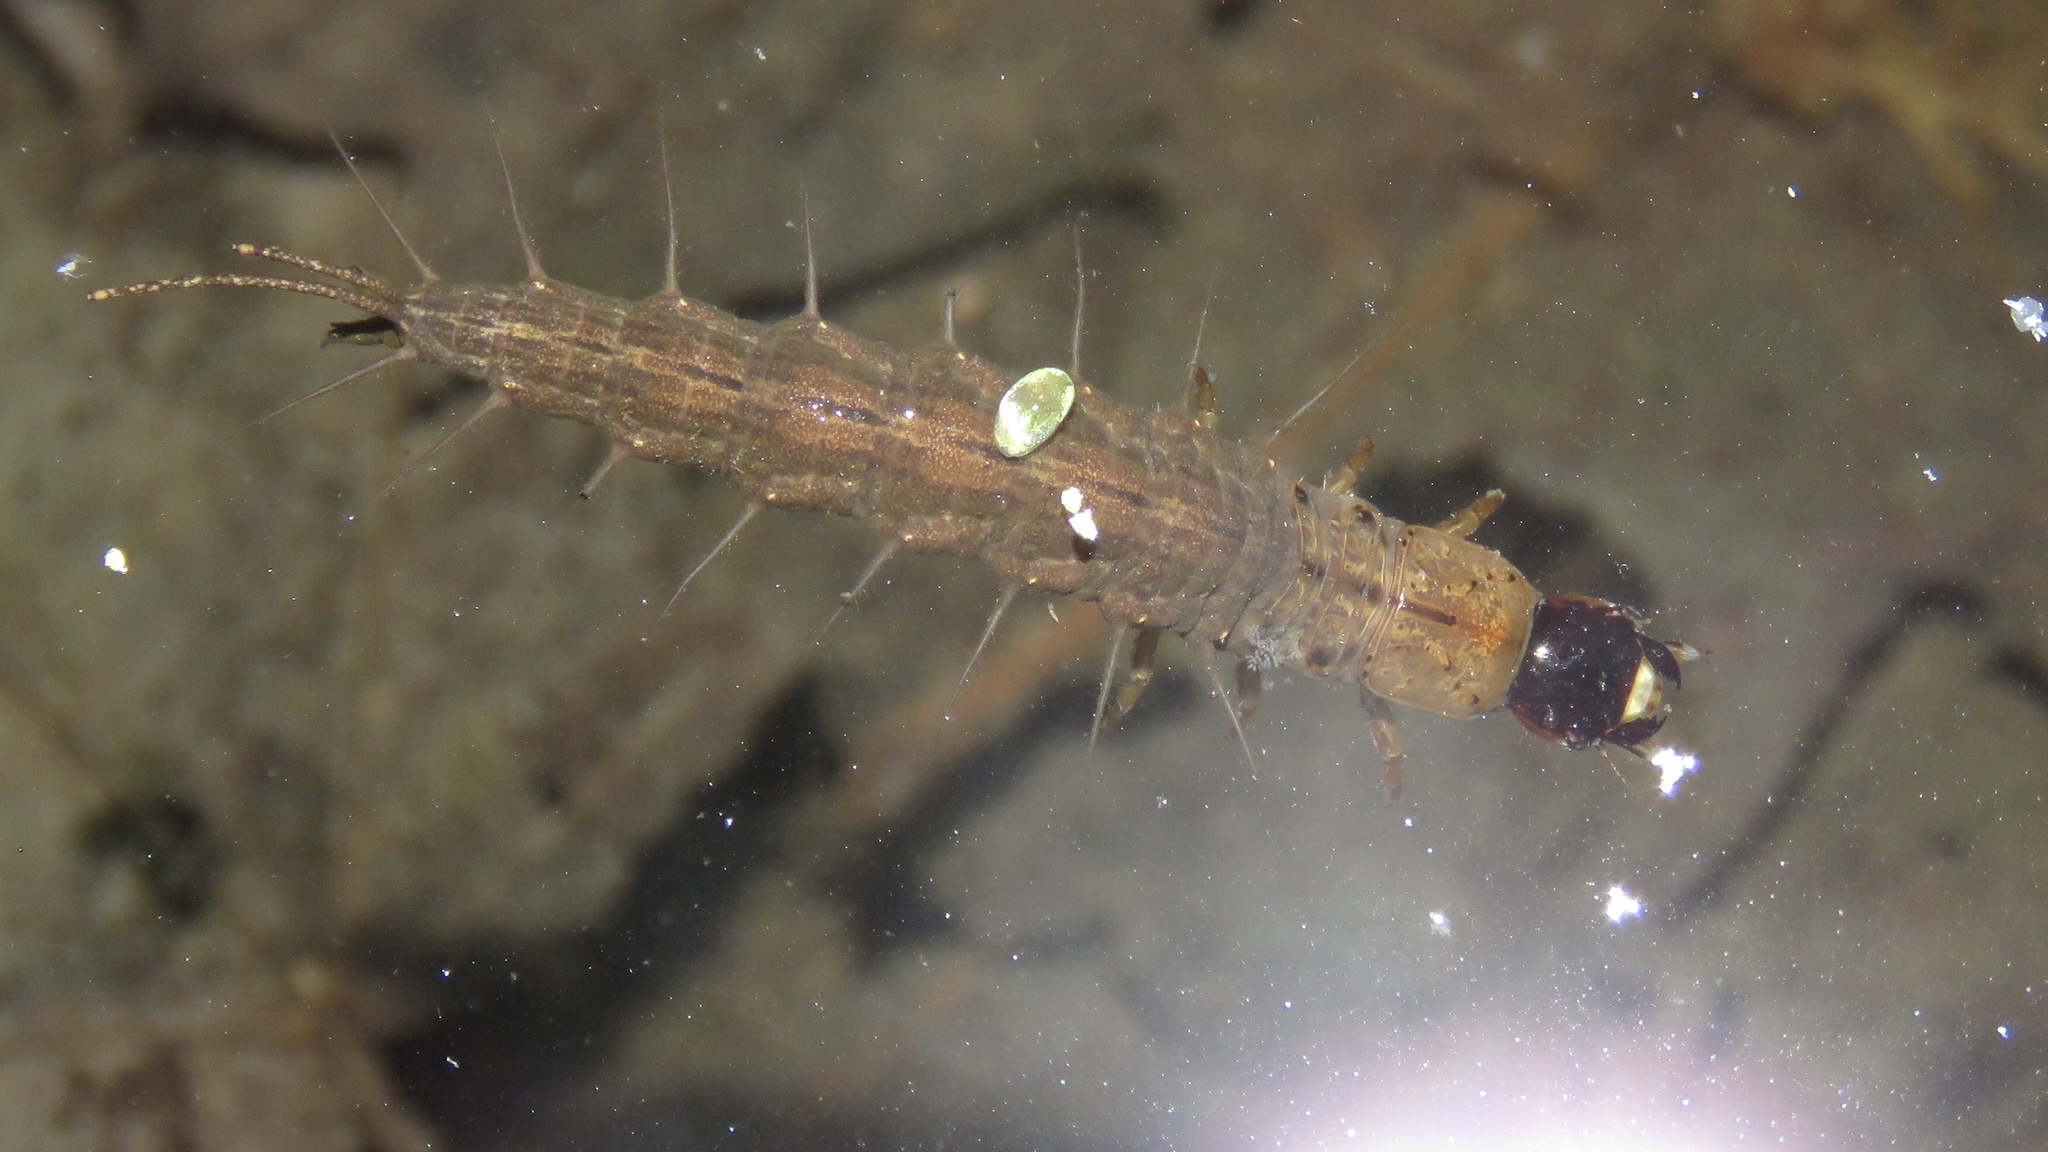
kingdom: Animalia
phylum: Arthropoda
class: Insecta
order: Megaloptera
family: Corydalidae
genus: Chauliodes
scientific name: Chauliodes rastricornis
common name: Spring fishfly
